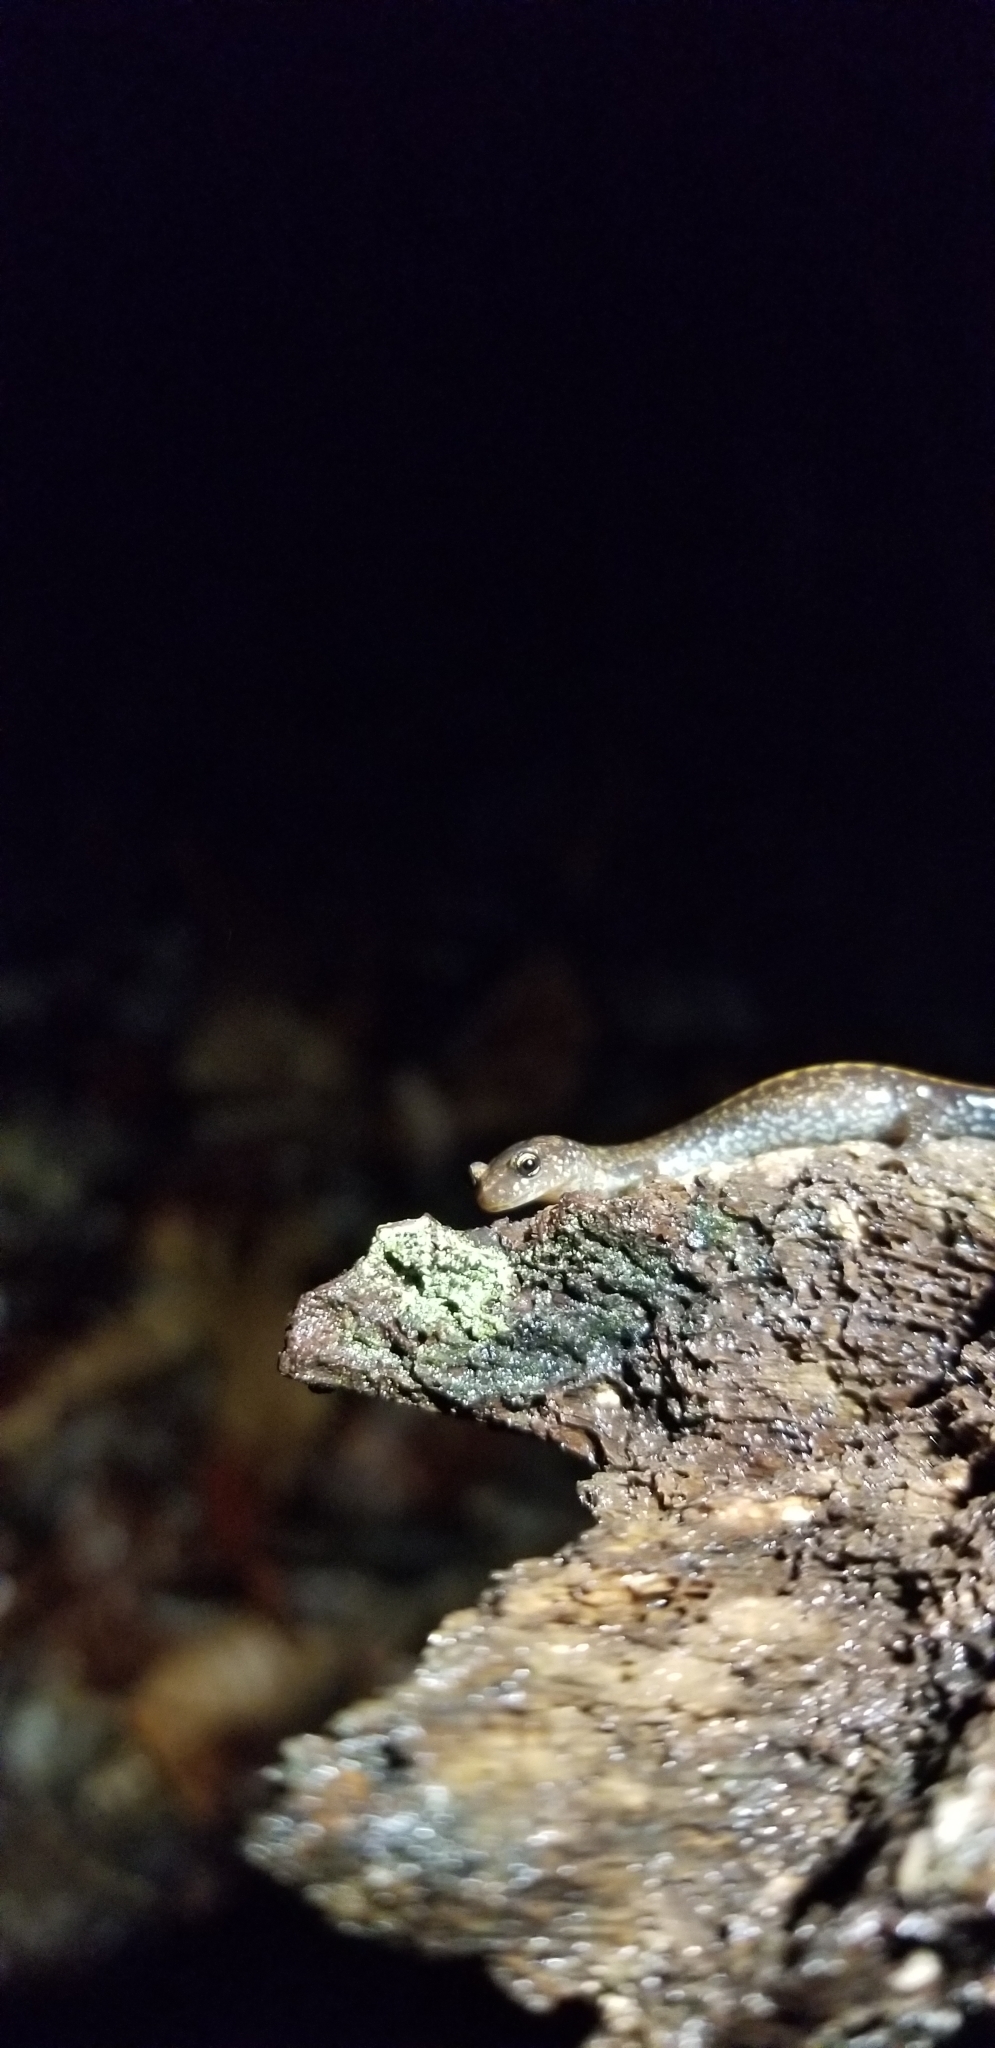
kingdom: Animalia
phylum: Chordata
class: Amphibia
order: Caudata
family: Plethodontidae
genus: Plethodon
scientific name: Plethodon cinereus
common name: Redback salamander
